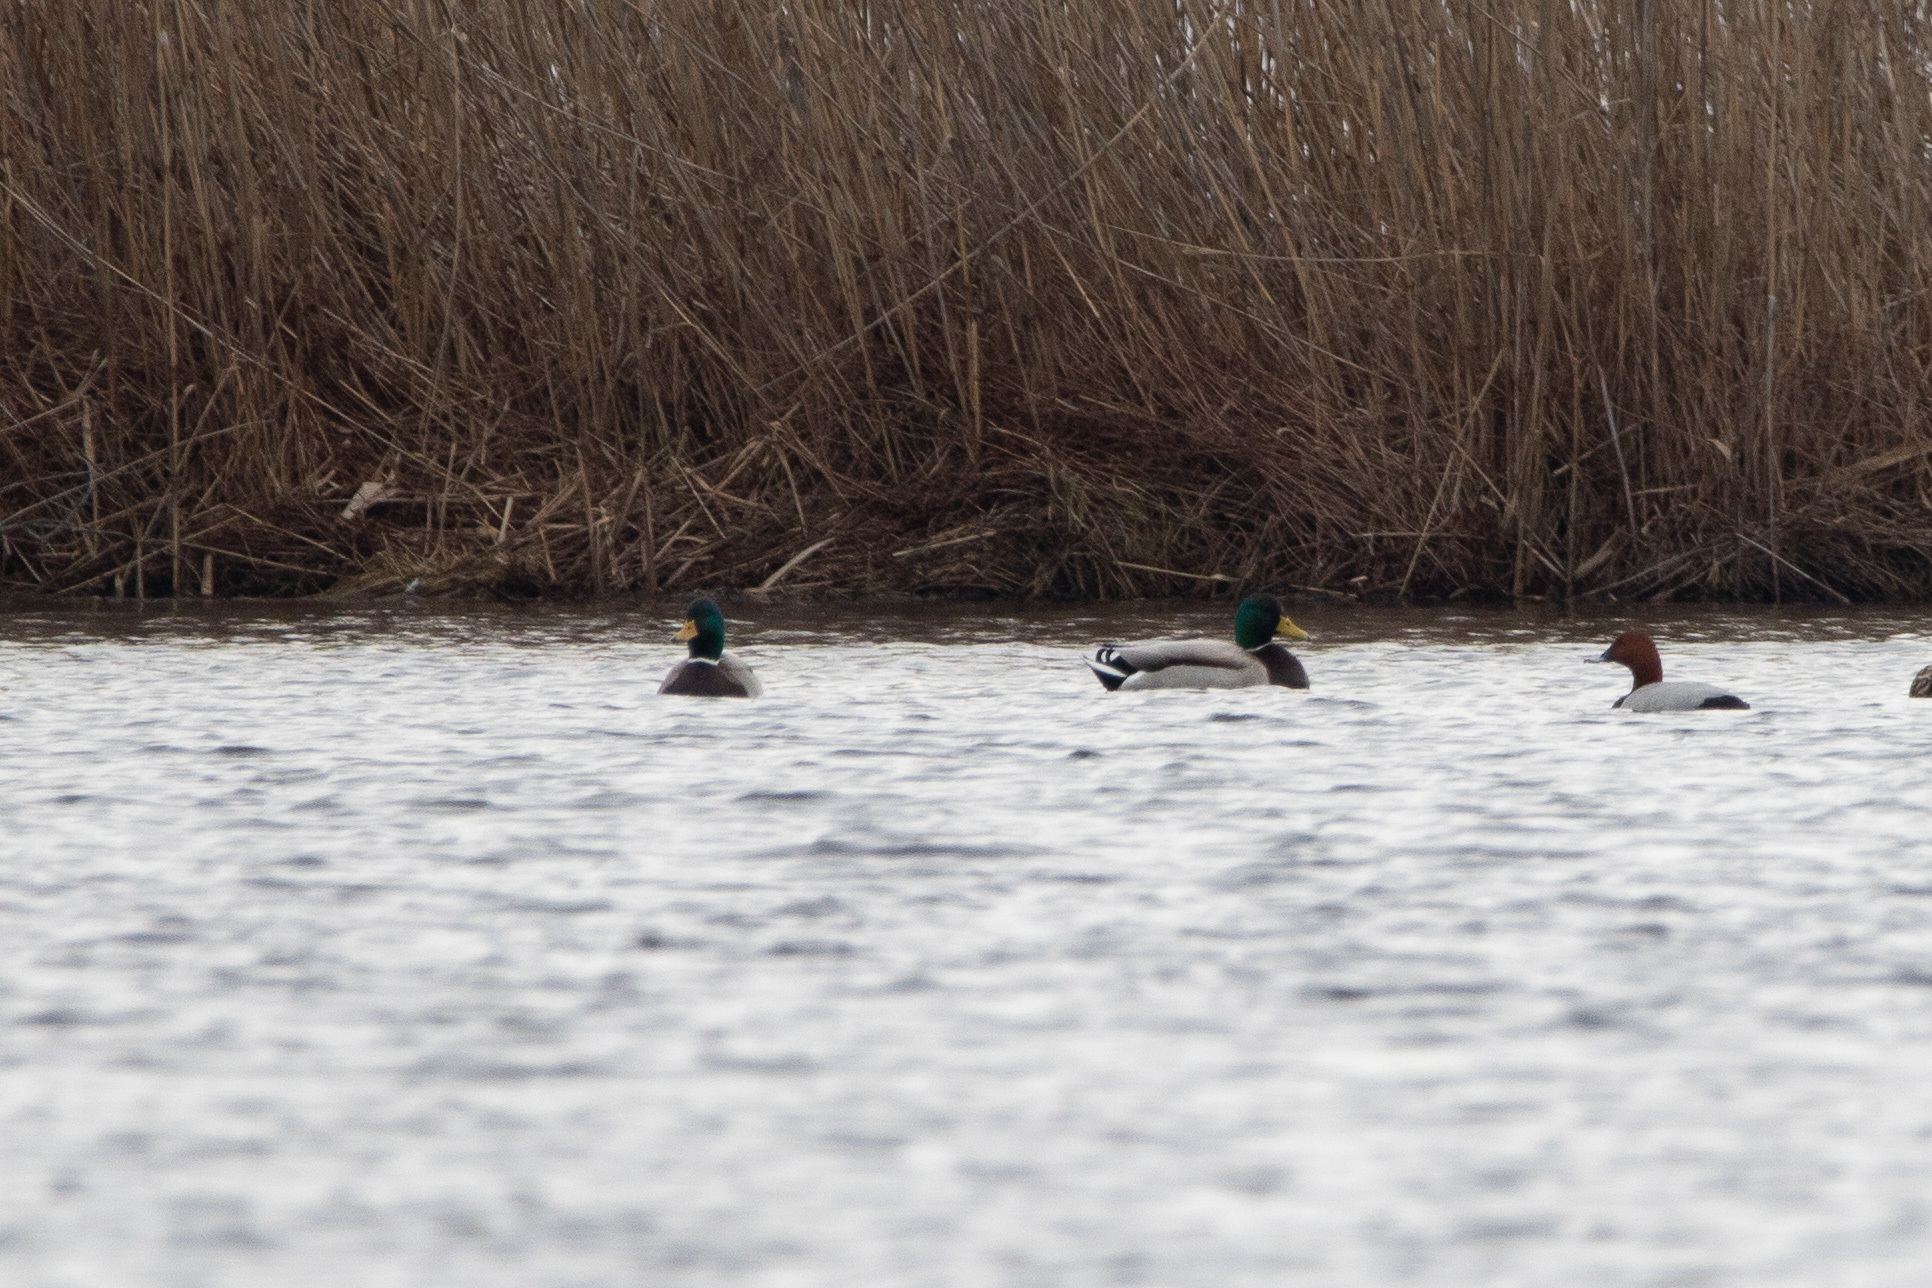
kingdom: Animalia
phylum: Chordata
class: Aves
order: Anseriformes
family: Anatidae
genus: Anas
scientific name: Anas platyrhynchos
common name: Mallard
